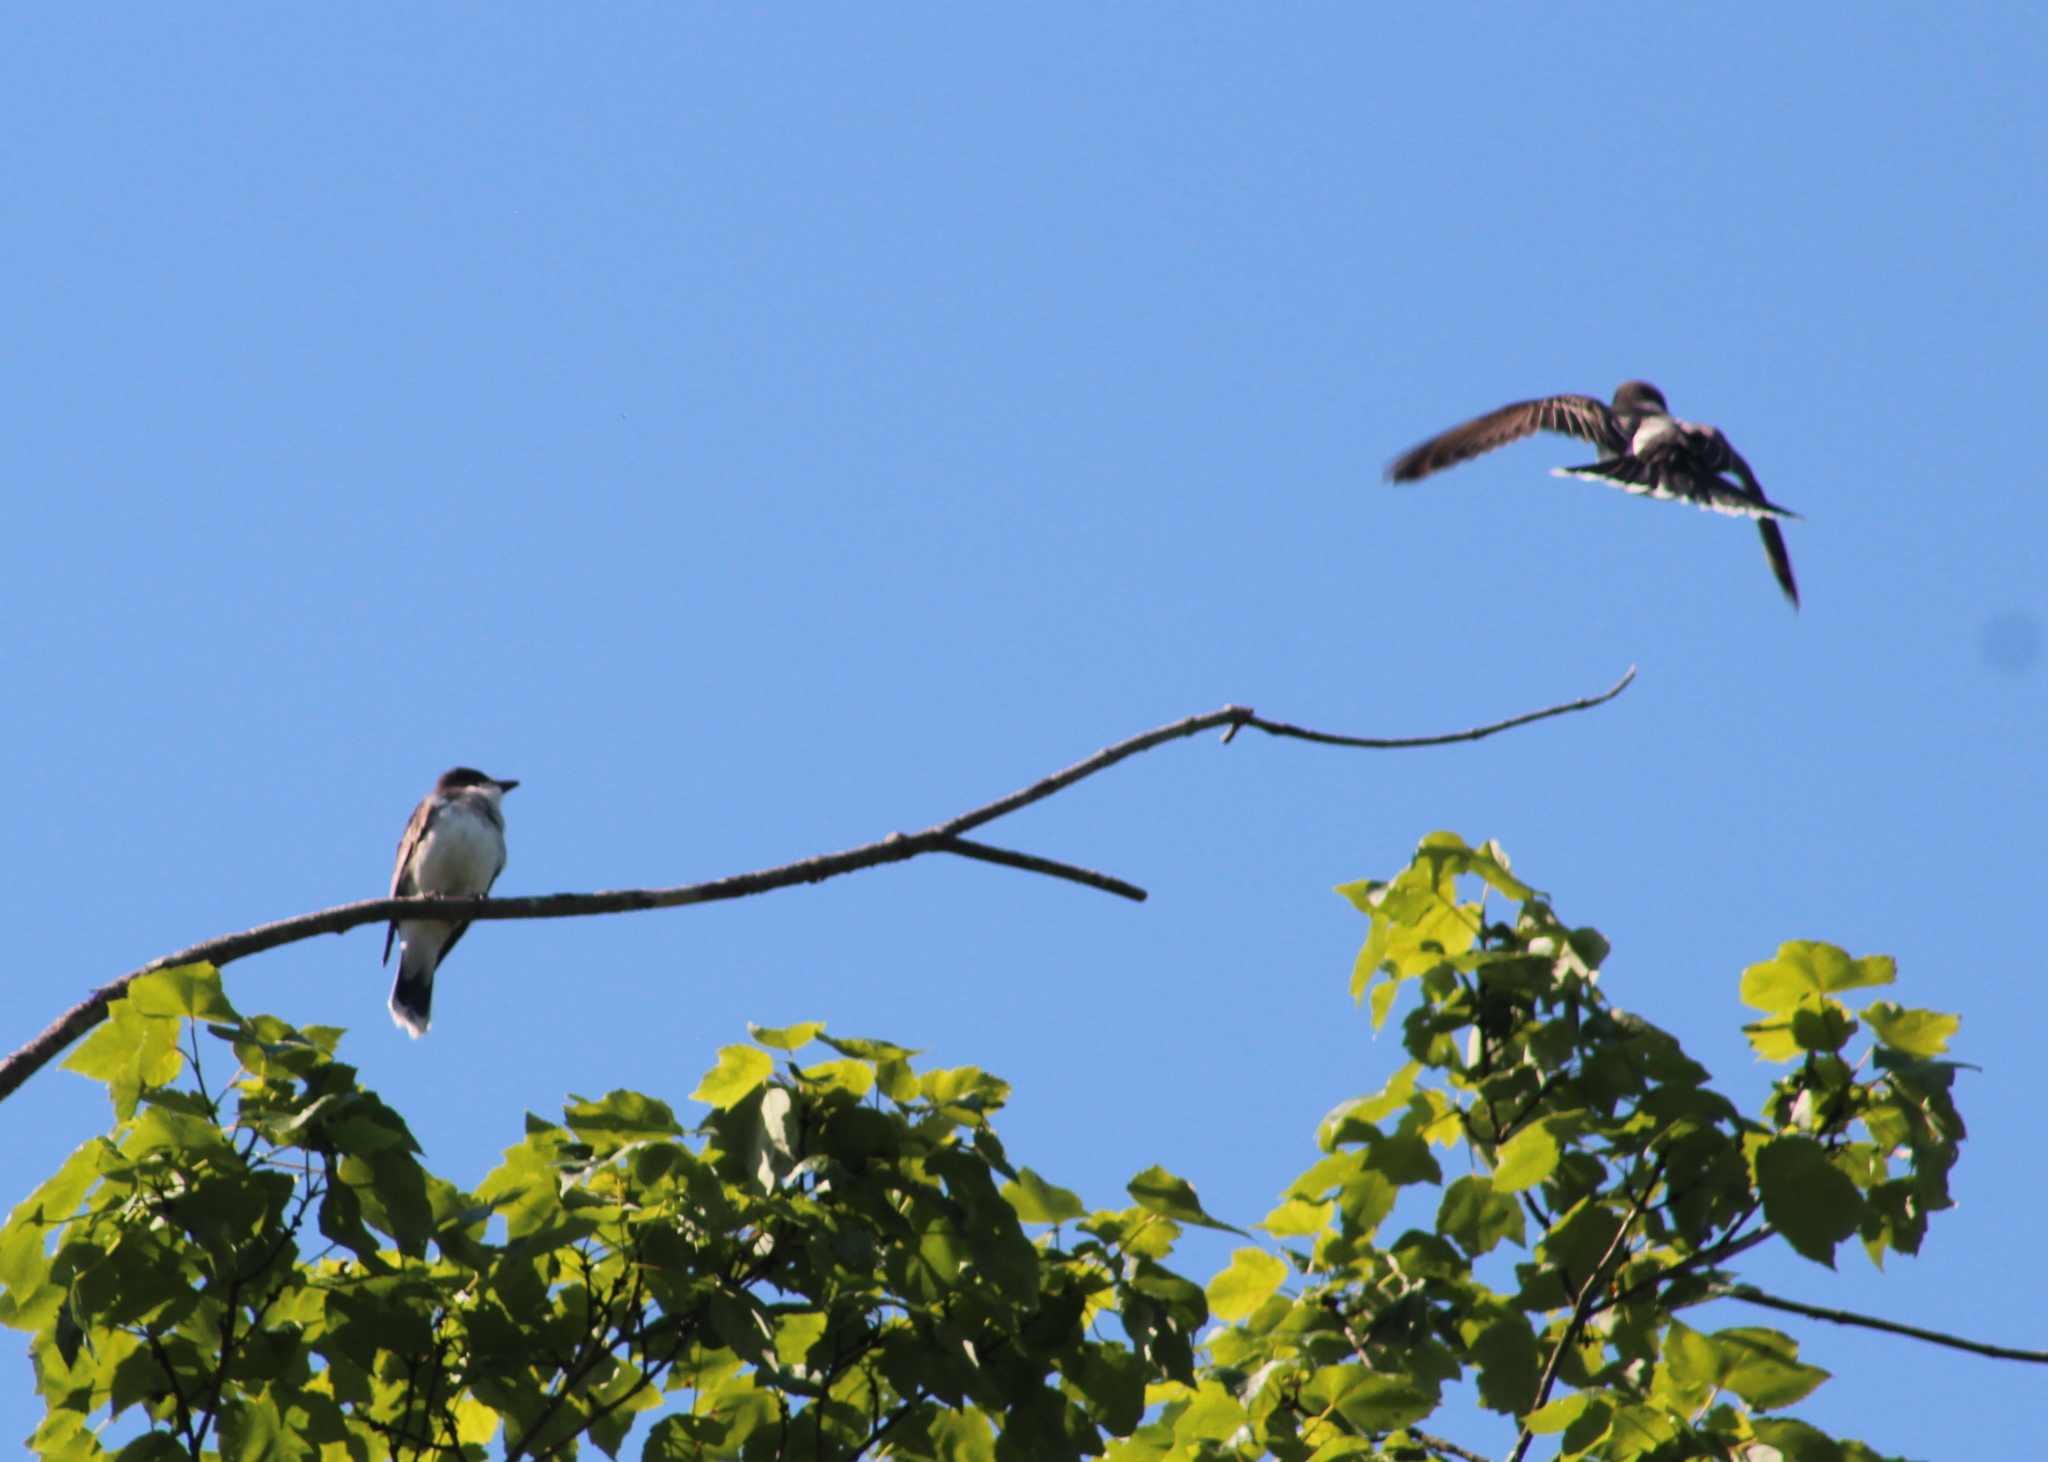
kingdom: Animalia
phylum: Chordata
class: Aves
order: Passeriformes
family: Tyrannidae
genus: Tyrannus
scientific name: Tyrannus tyrannus
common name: Eastern kingbird
